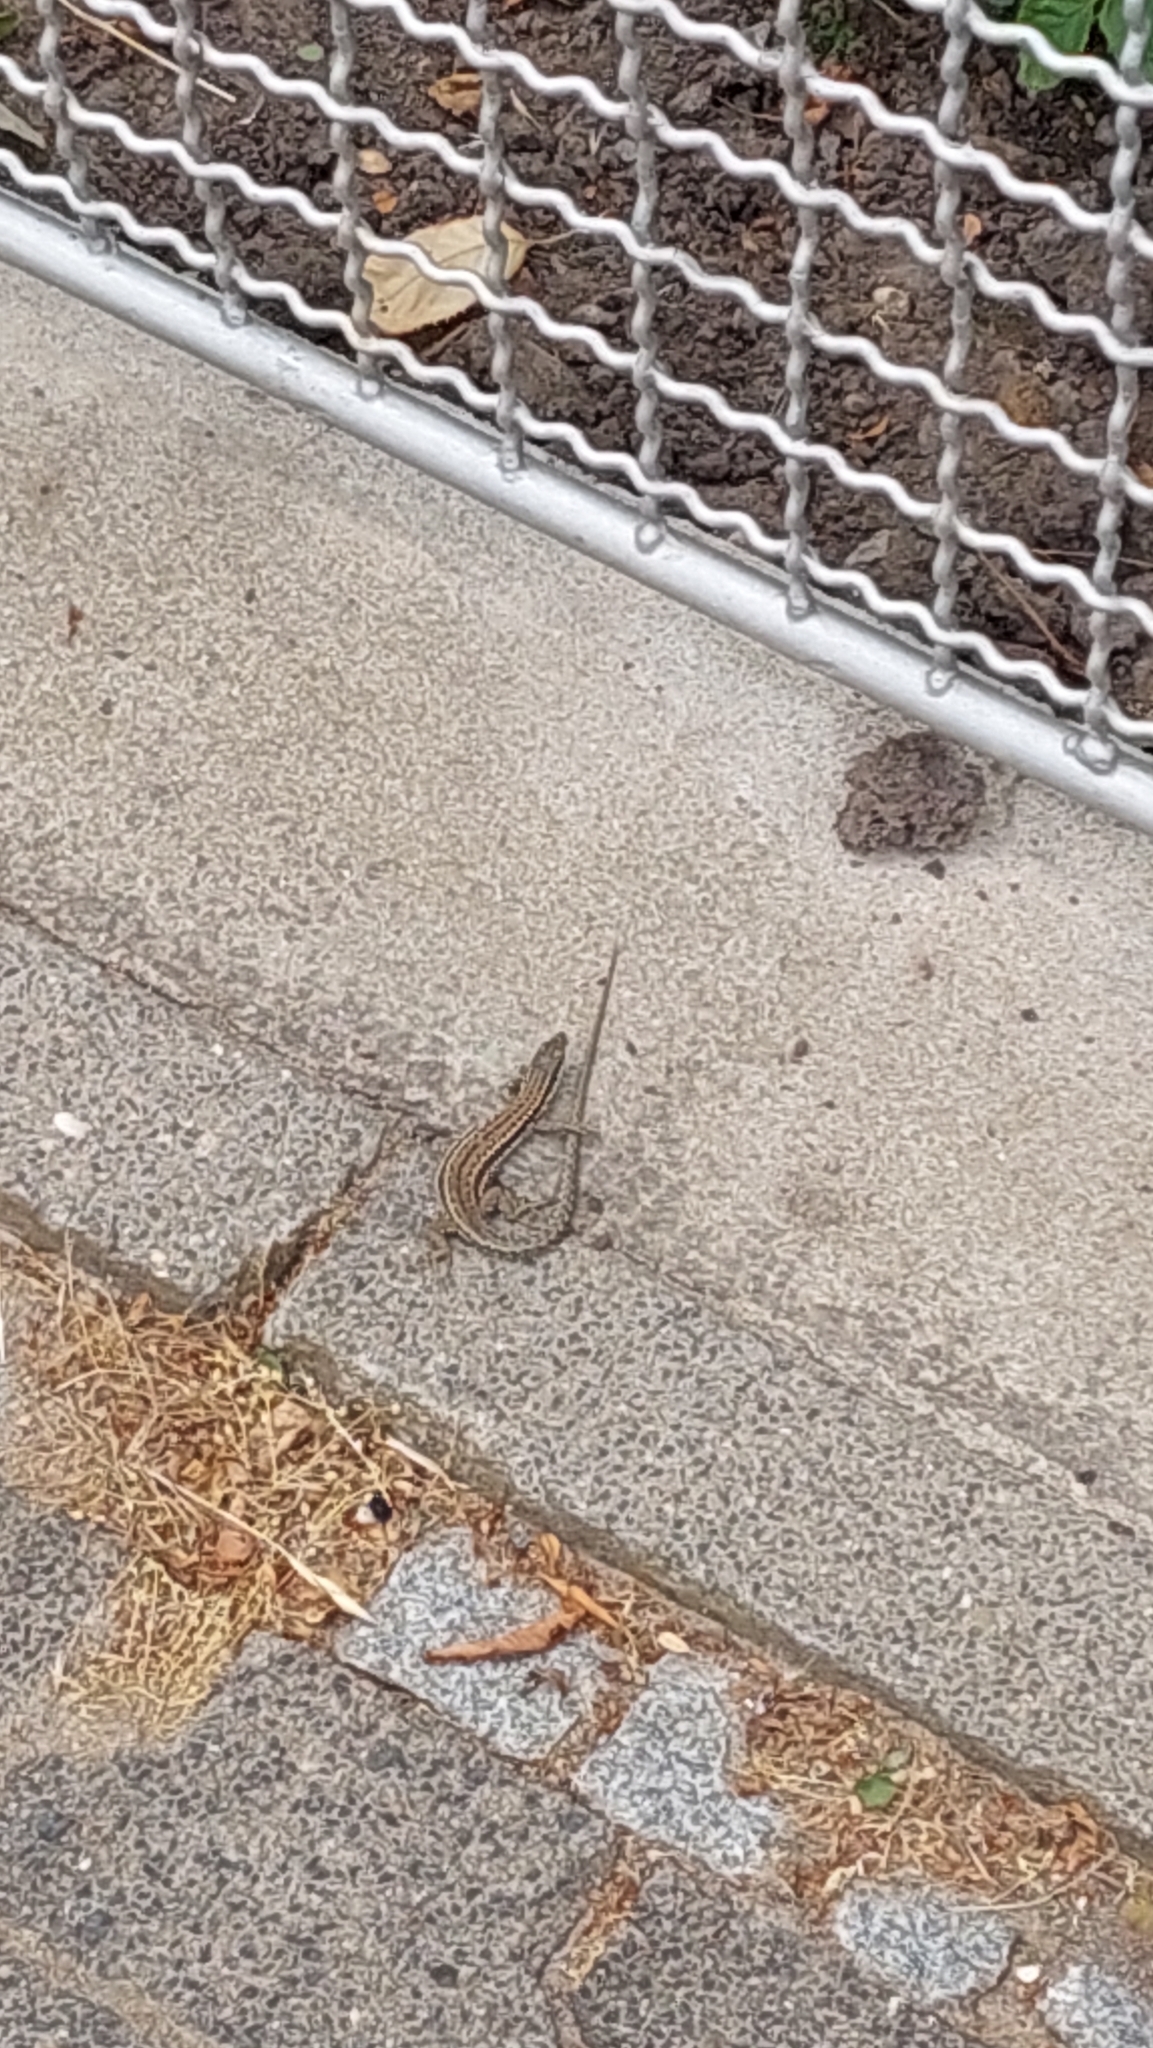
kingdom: Animalia
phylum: Chordata
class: Squamata
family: Lacertidae
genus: Podarcis
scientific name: Podarcis muralis
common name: Common wall lizard
